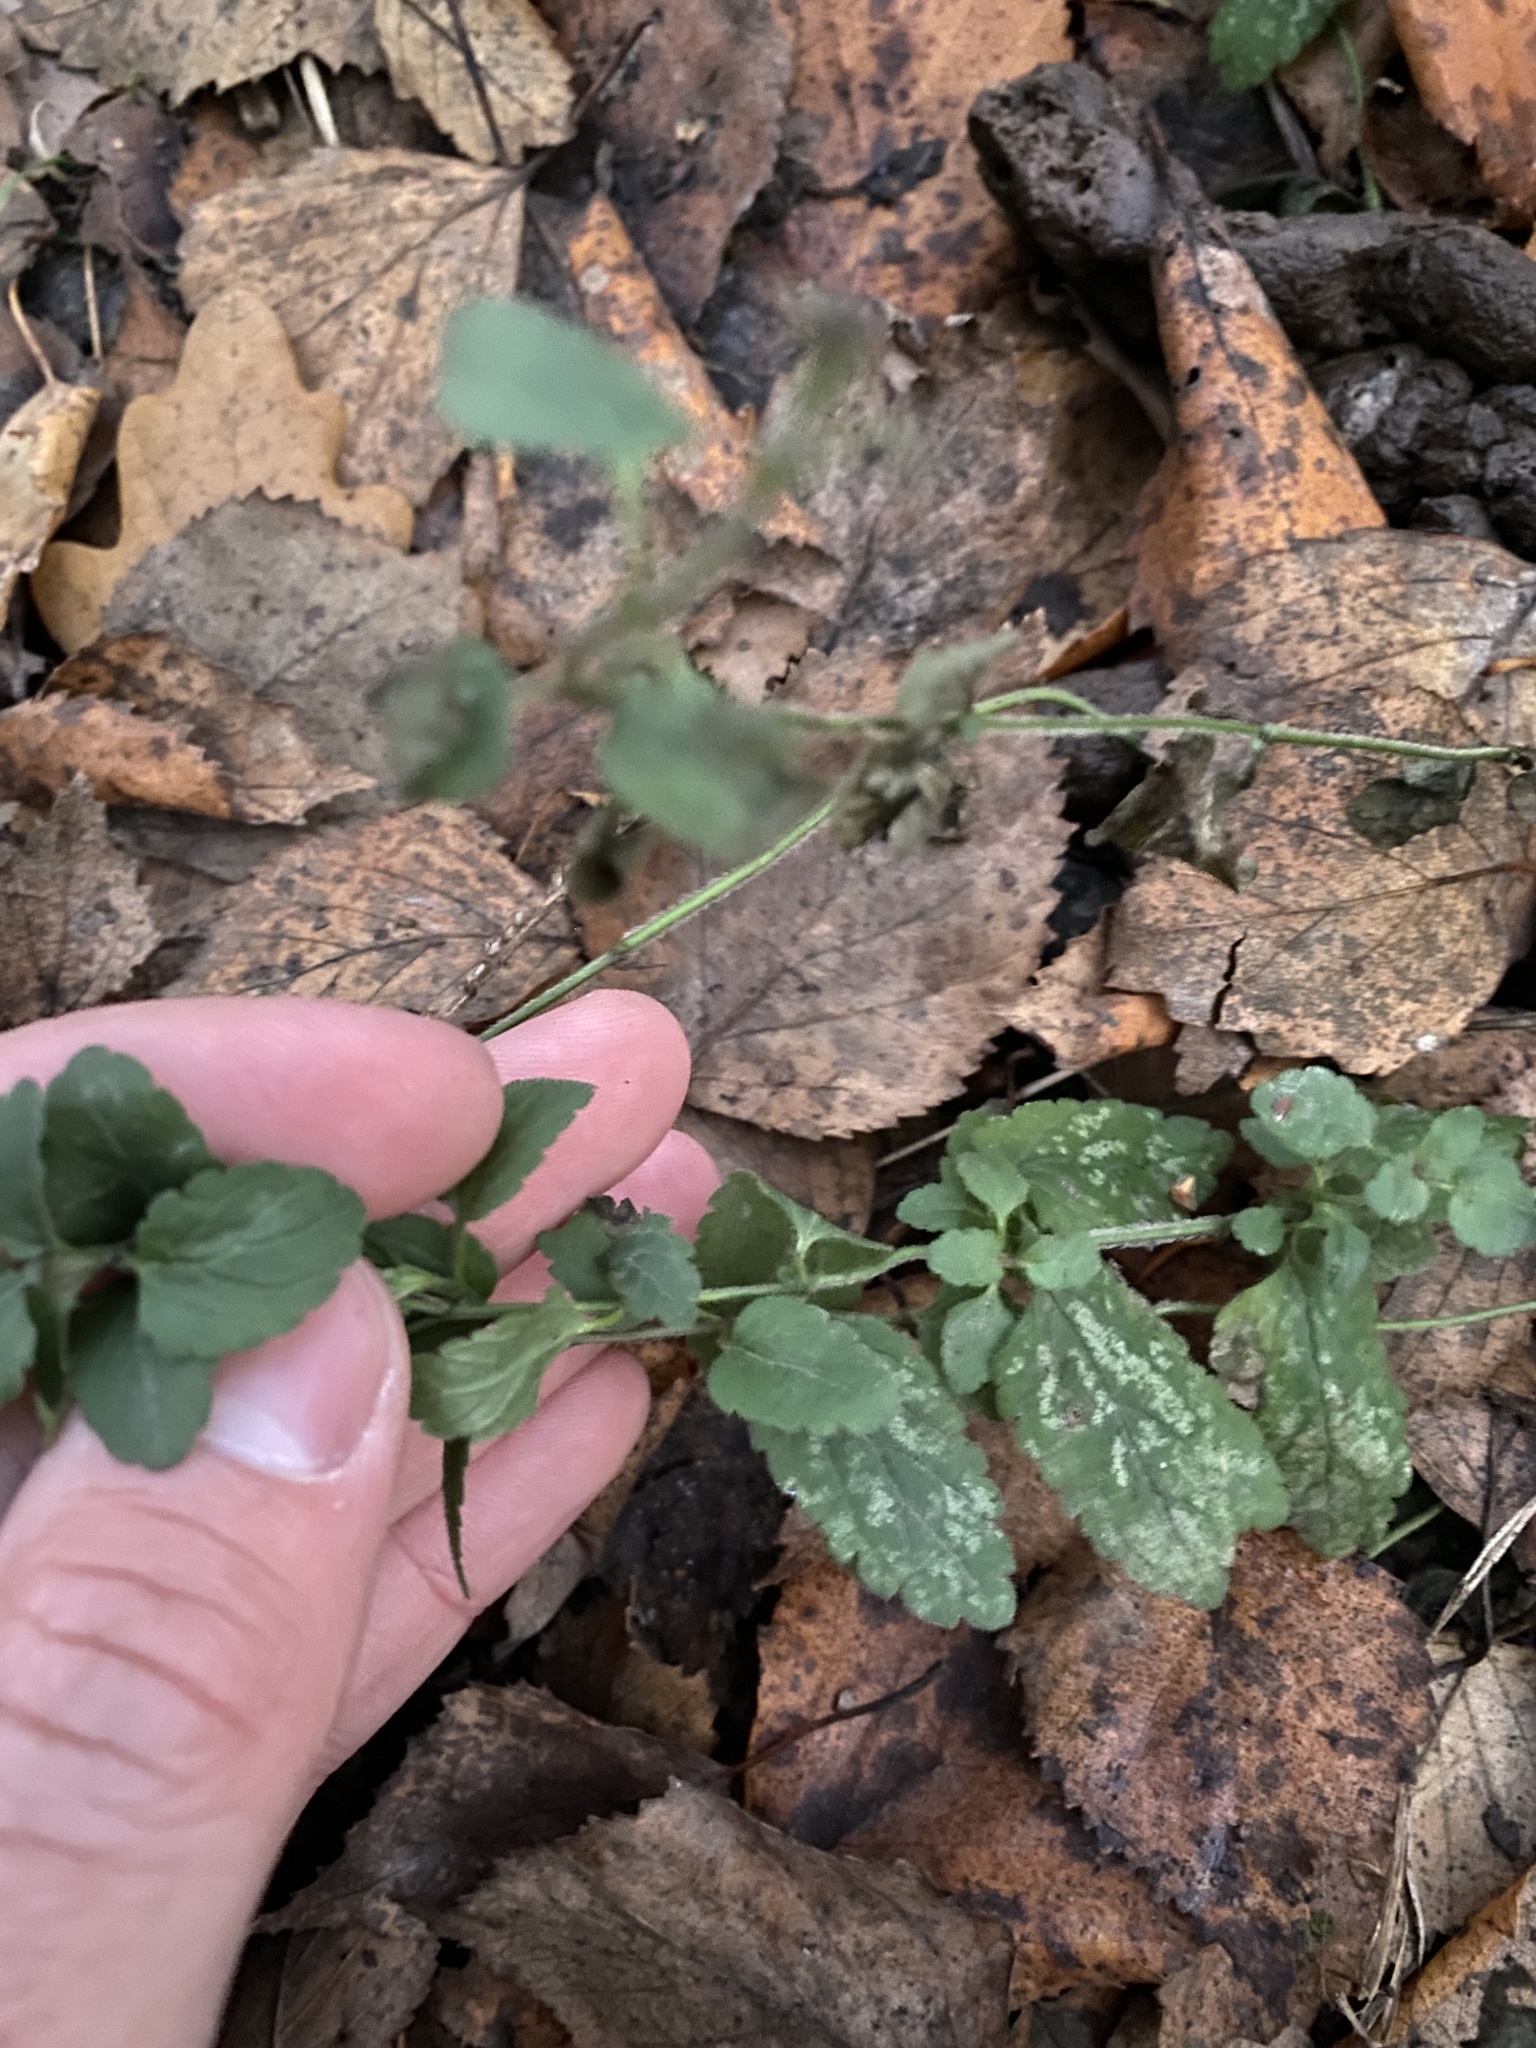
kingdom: Plantae
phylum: Tracheophyta
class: Magnoliopsida
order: Lamiales
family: Plantaginaceae
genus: Veronica
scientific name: Veronica chamaedrys
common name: Germander speedwell
